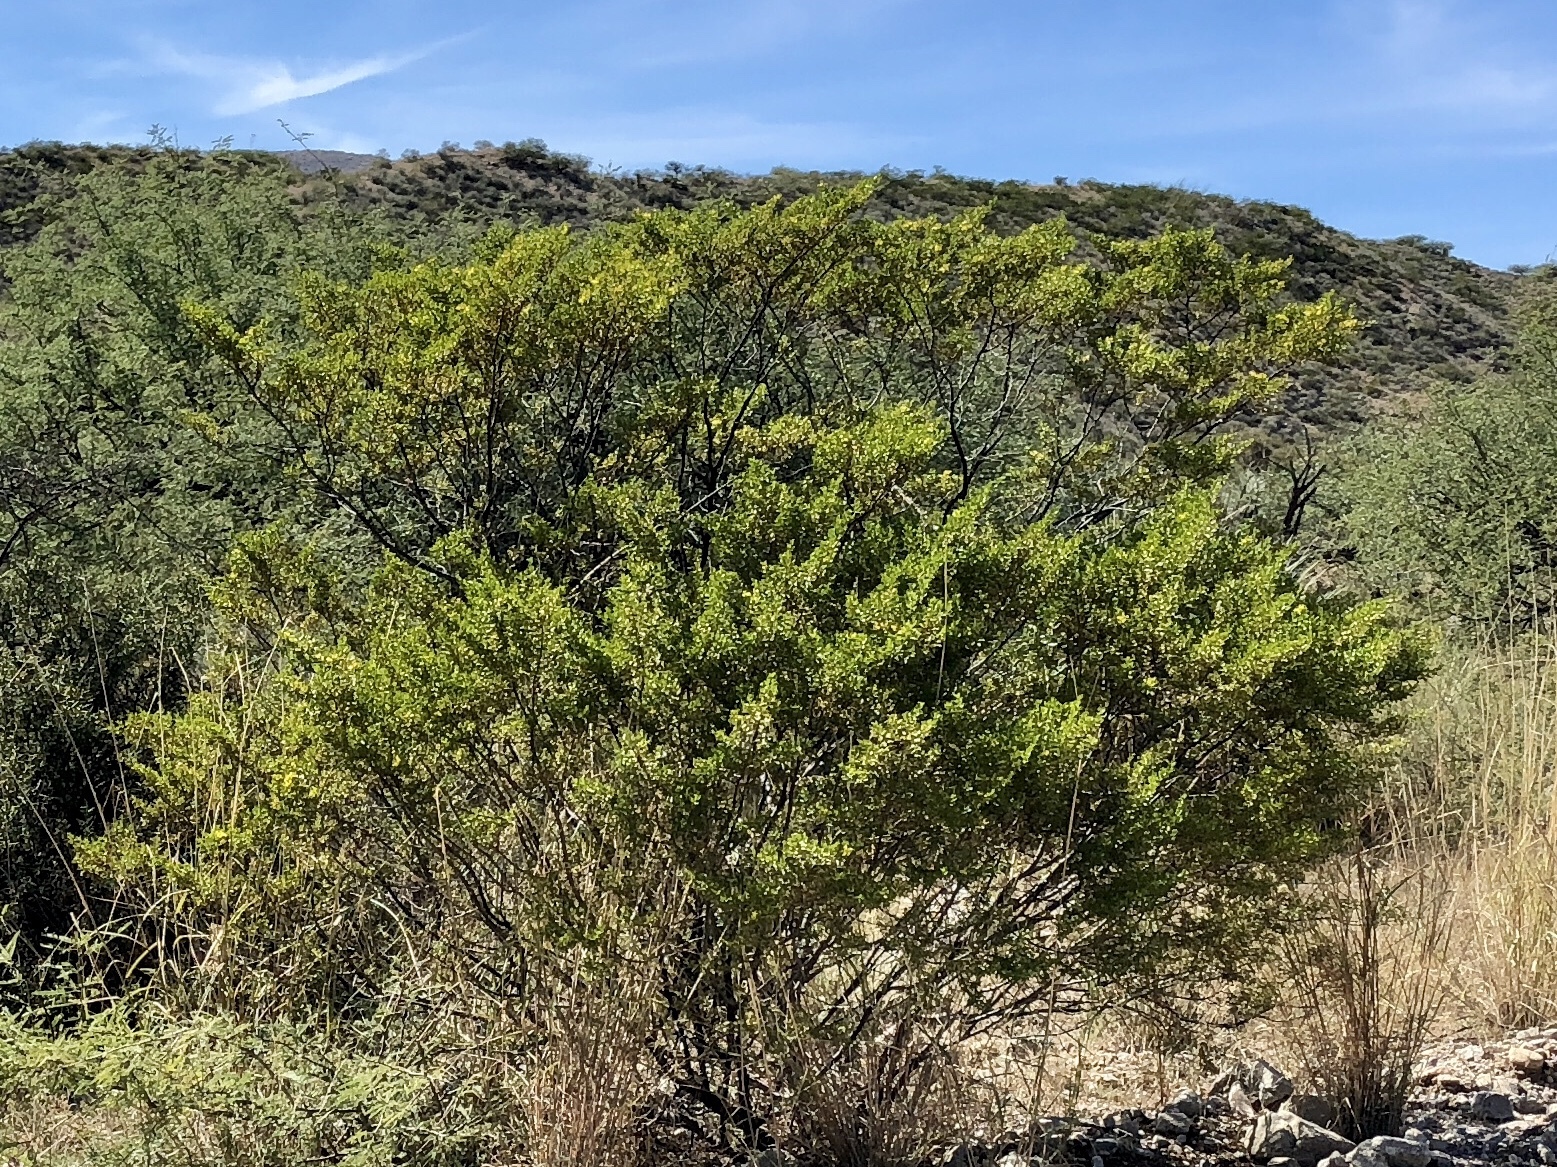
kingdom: Plantae
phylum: Tracheophyta
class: Magnoliopsida
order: Zygophyllales
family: Zygophyllaceae
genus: Larrea
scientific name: Larrea tridentata
